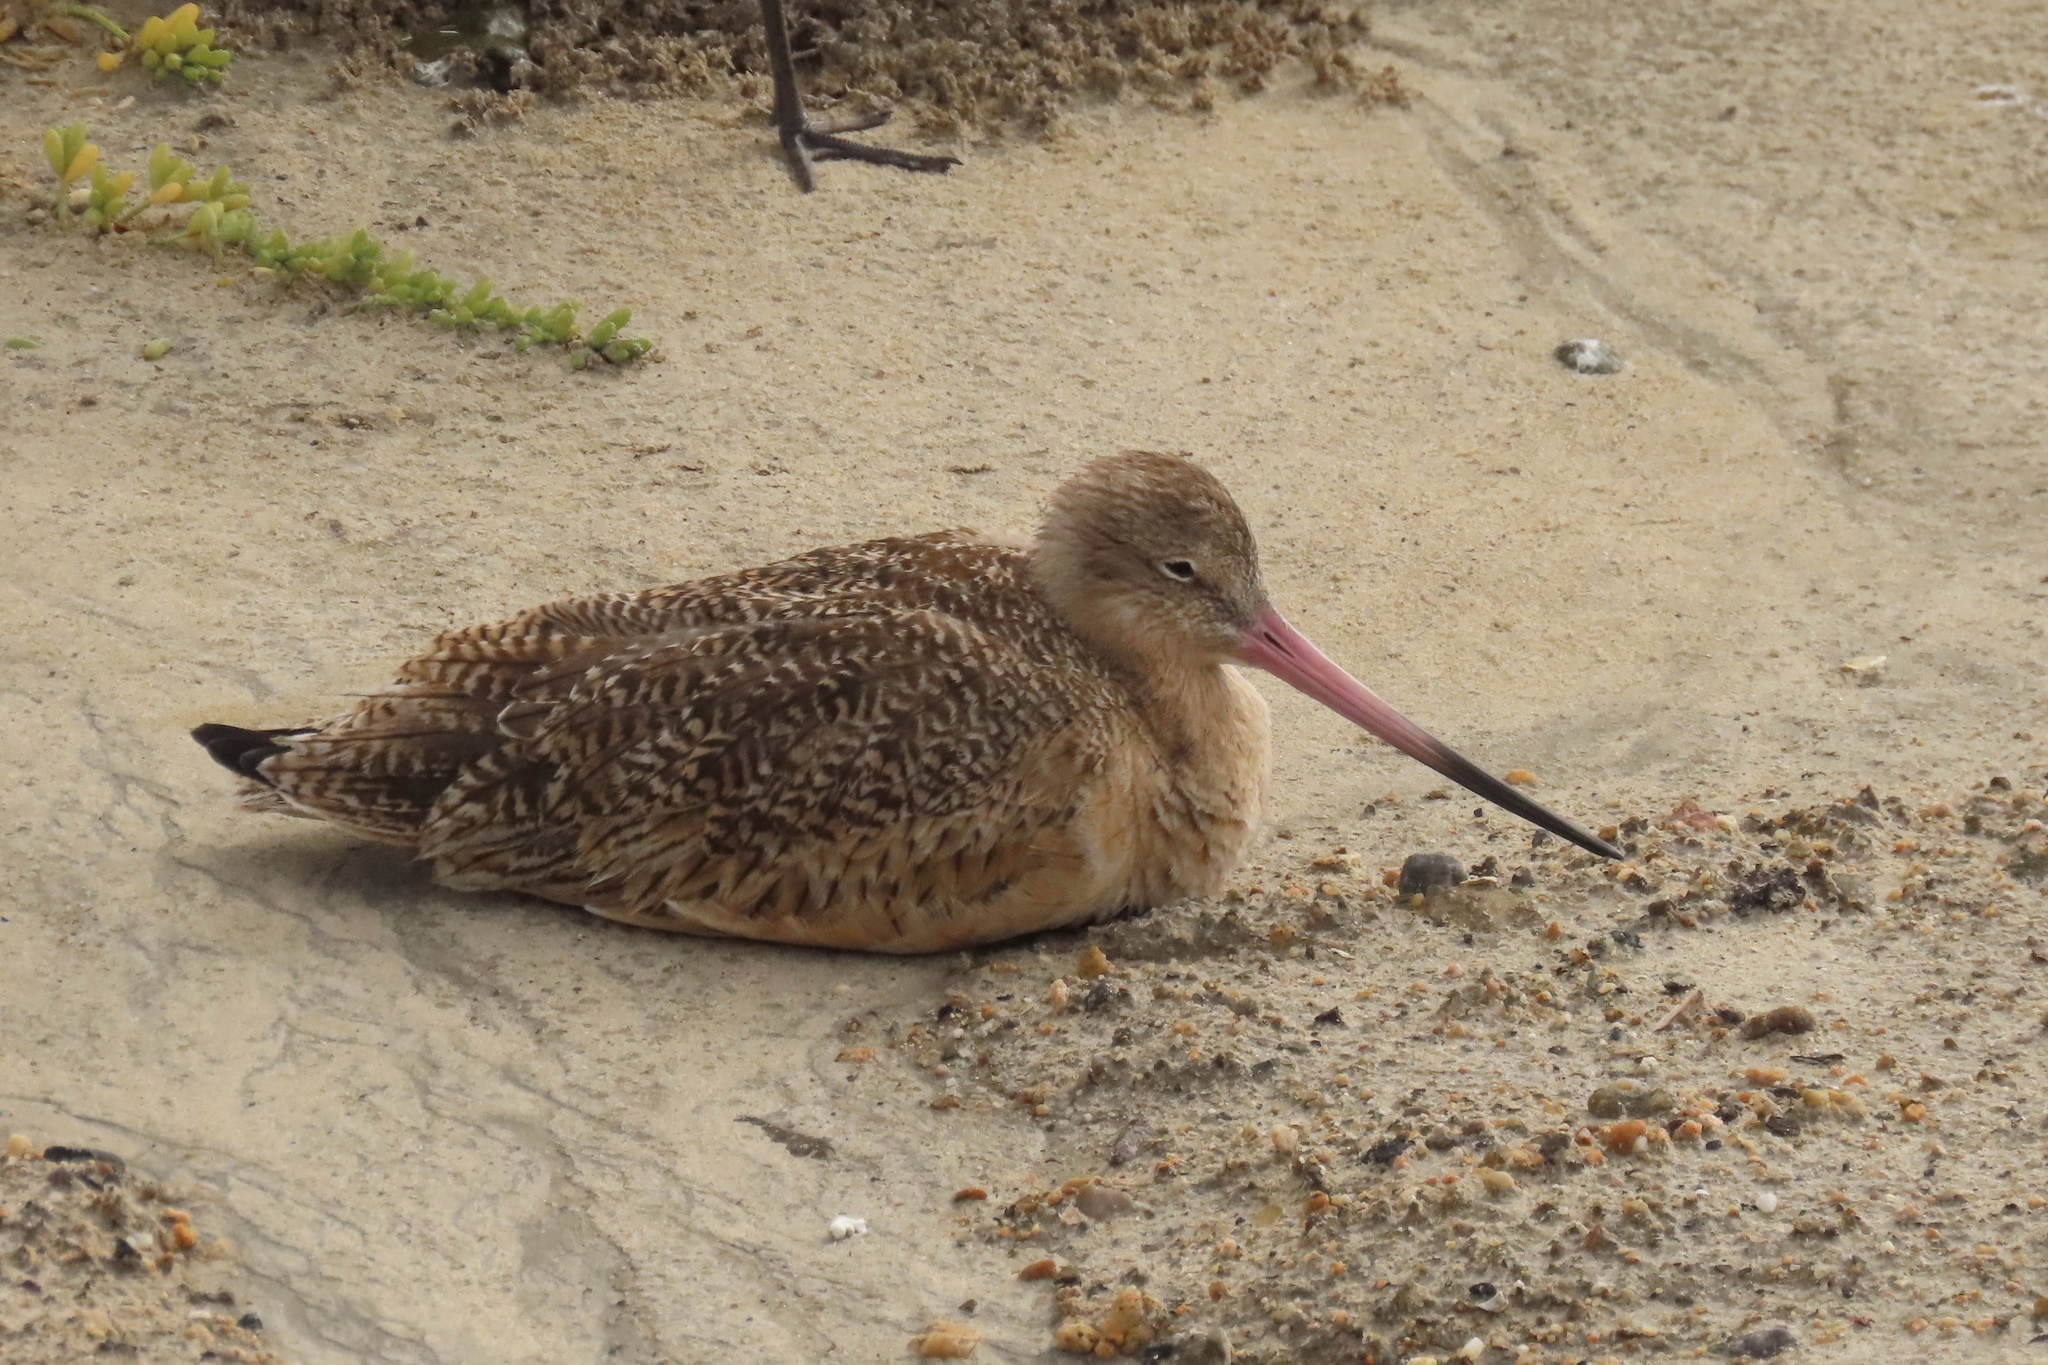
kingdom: Animalia
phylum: Chordata
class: Aves
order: Charadriiformes
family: Scolopacidae
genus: Limosa
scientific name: Limosa fedoa
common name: Marbled godwit
